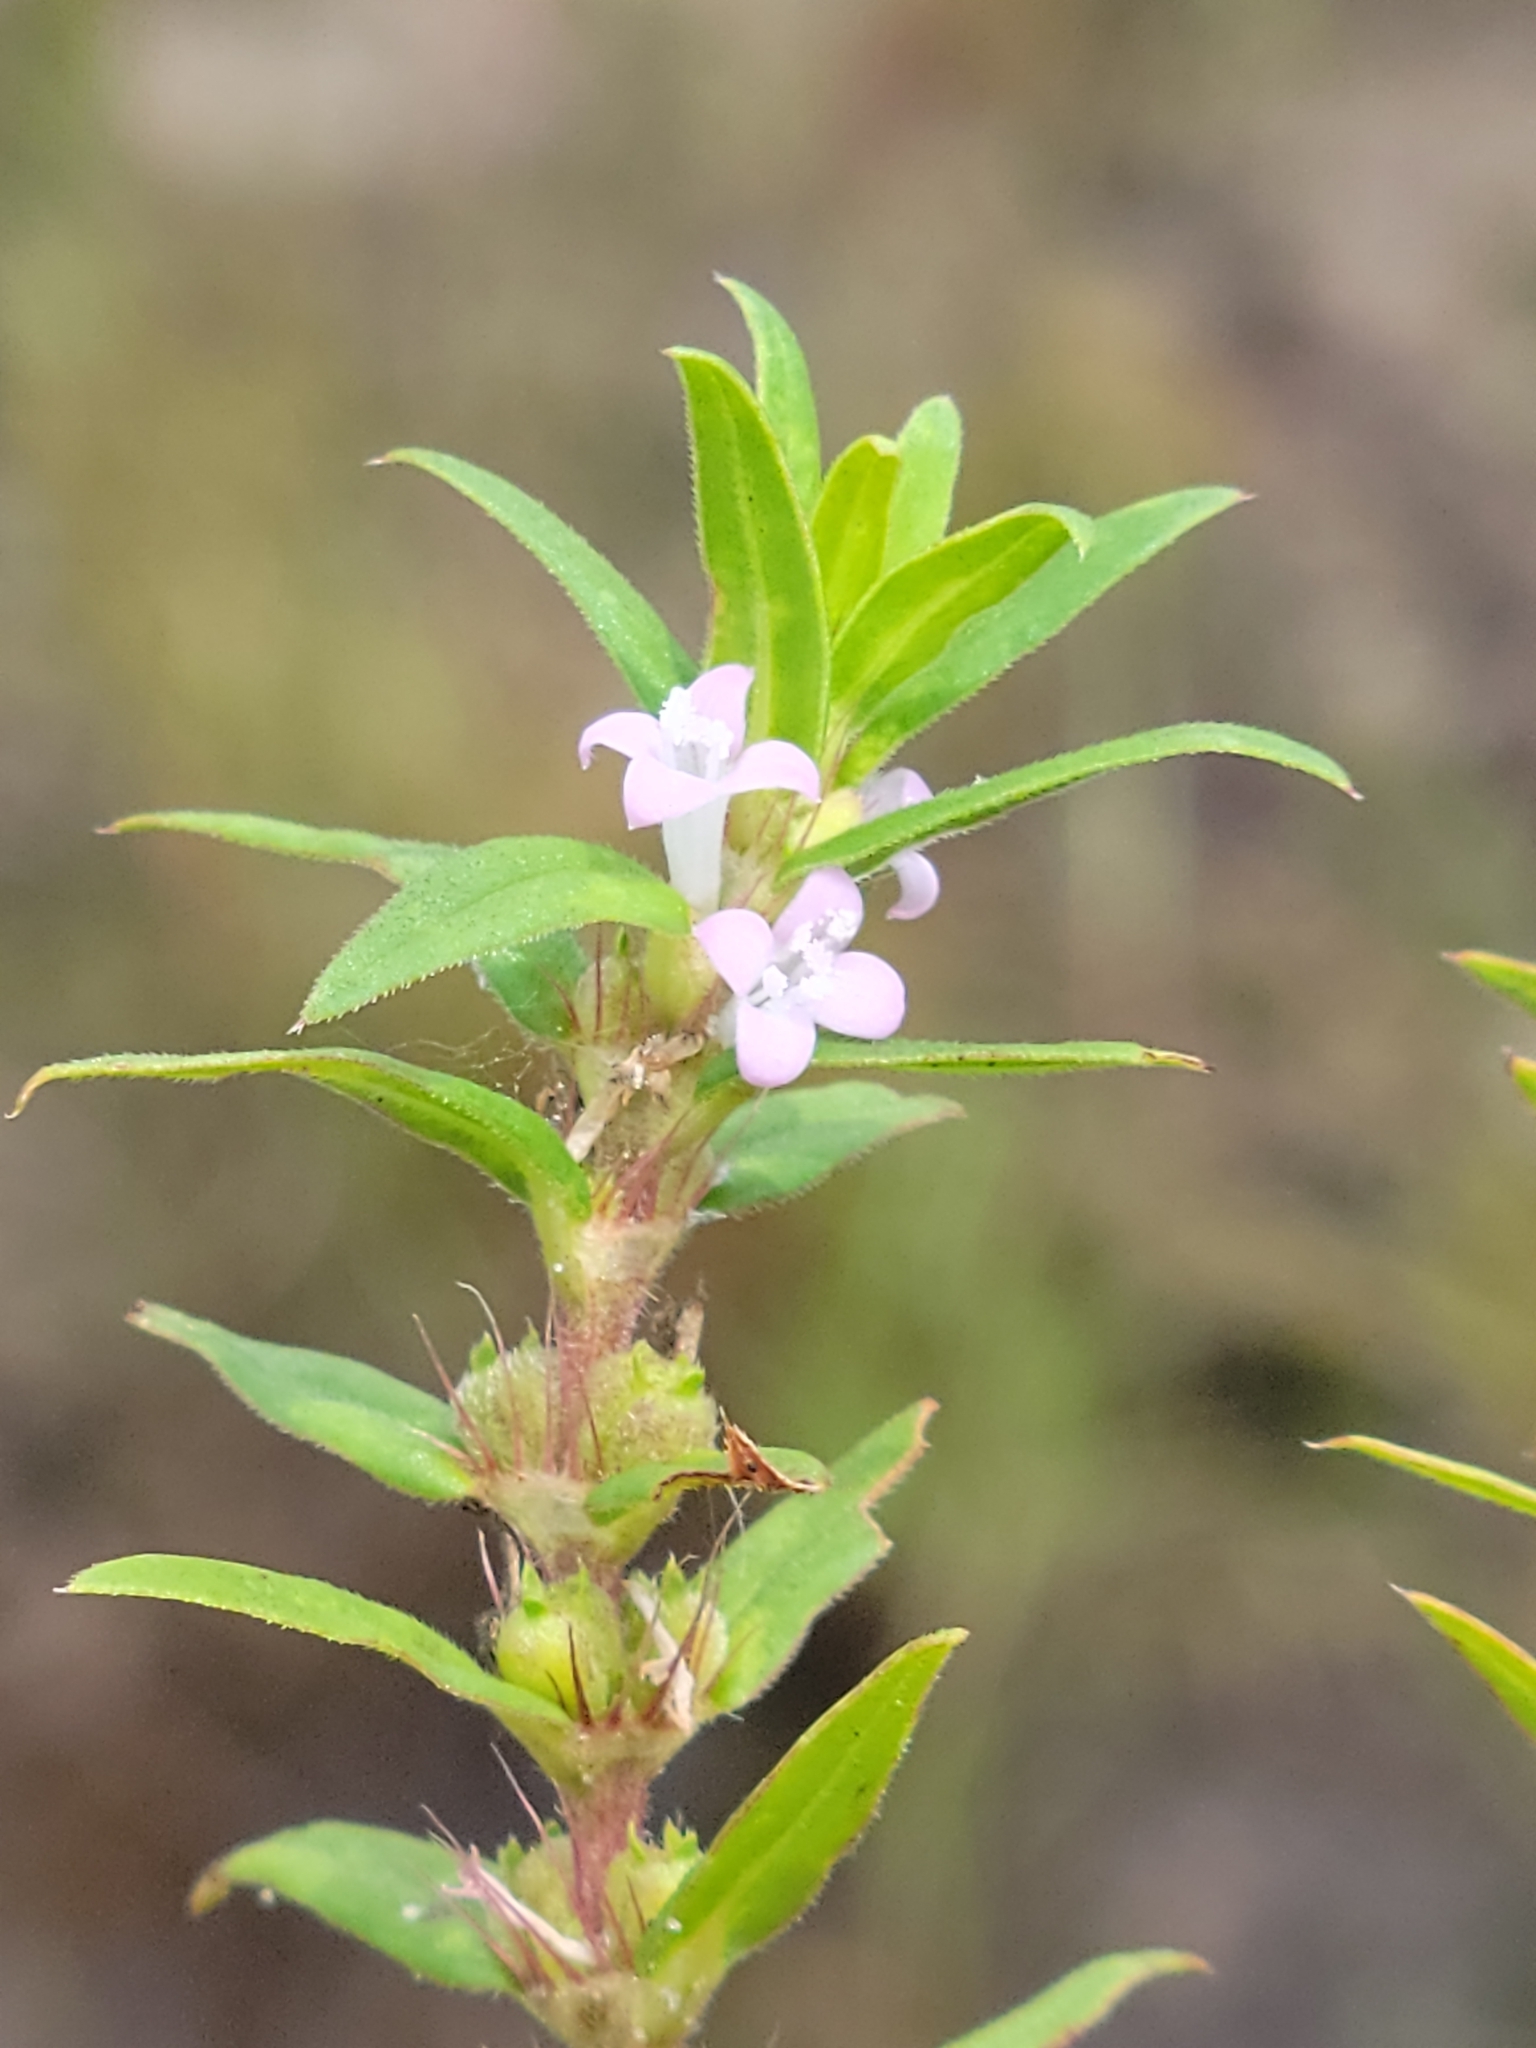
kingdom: Plantae
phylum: Tracheophyta
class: Magnoliopsida
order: Gentianales
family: Rubiaceae
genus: Hexasepalum
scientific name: Hexasepalum teres
